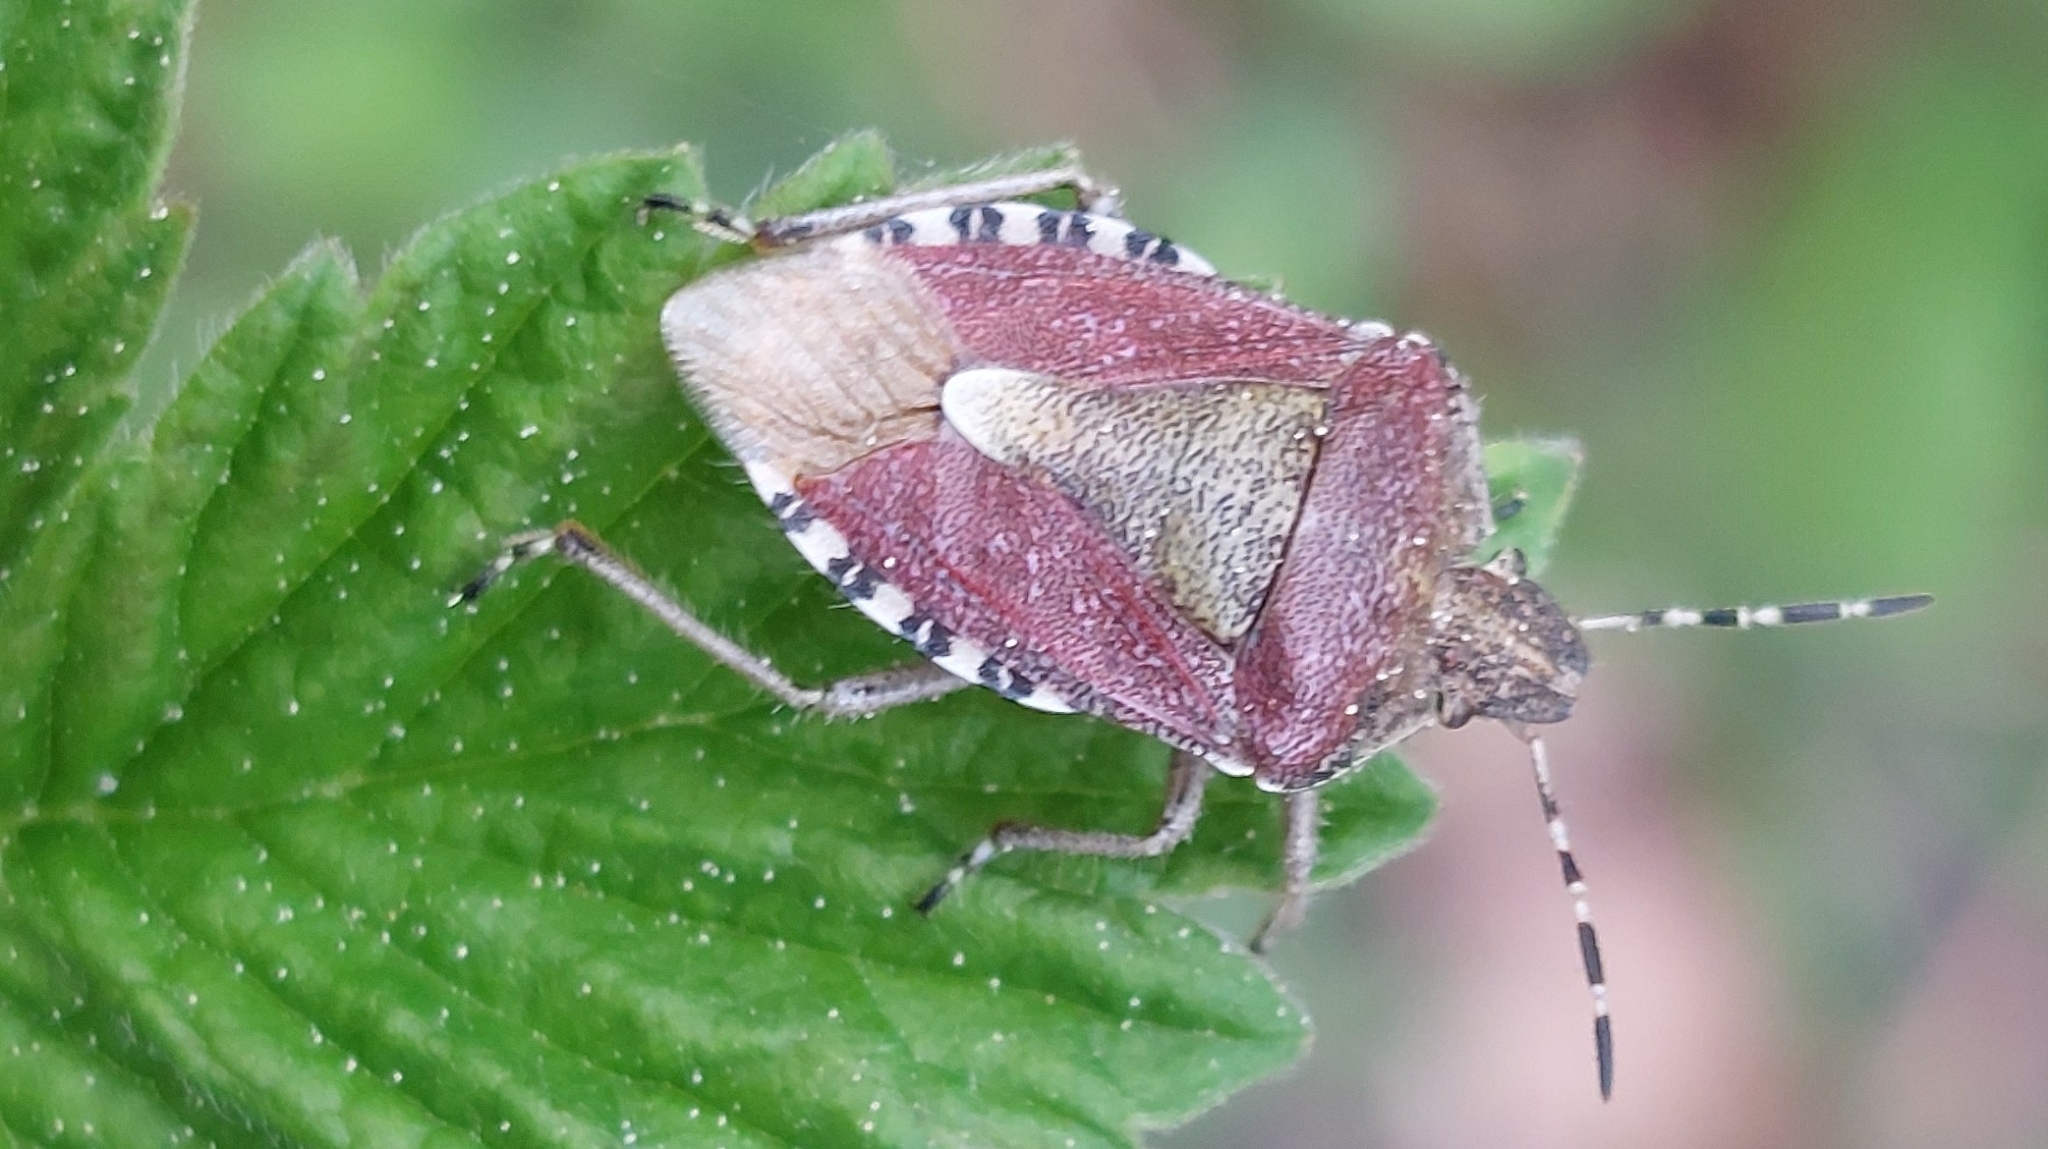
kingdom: Animalia
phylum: Arthropoda
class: Insecta
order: Hemiptera
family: Pentatomidae
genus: Dolycoris
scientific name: Dolycoris baccarum
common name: Sloe bug
